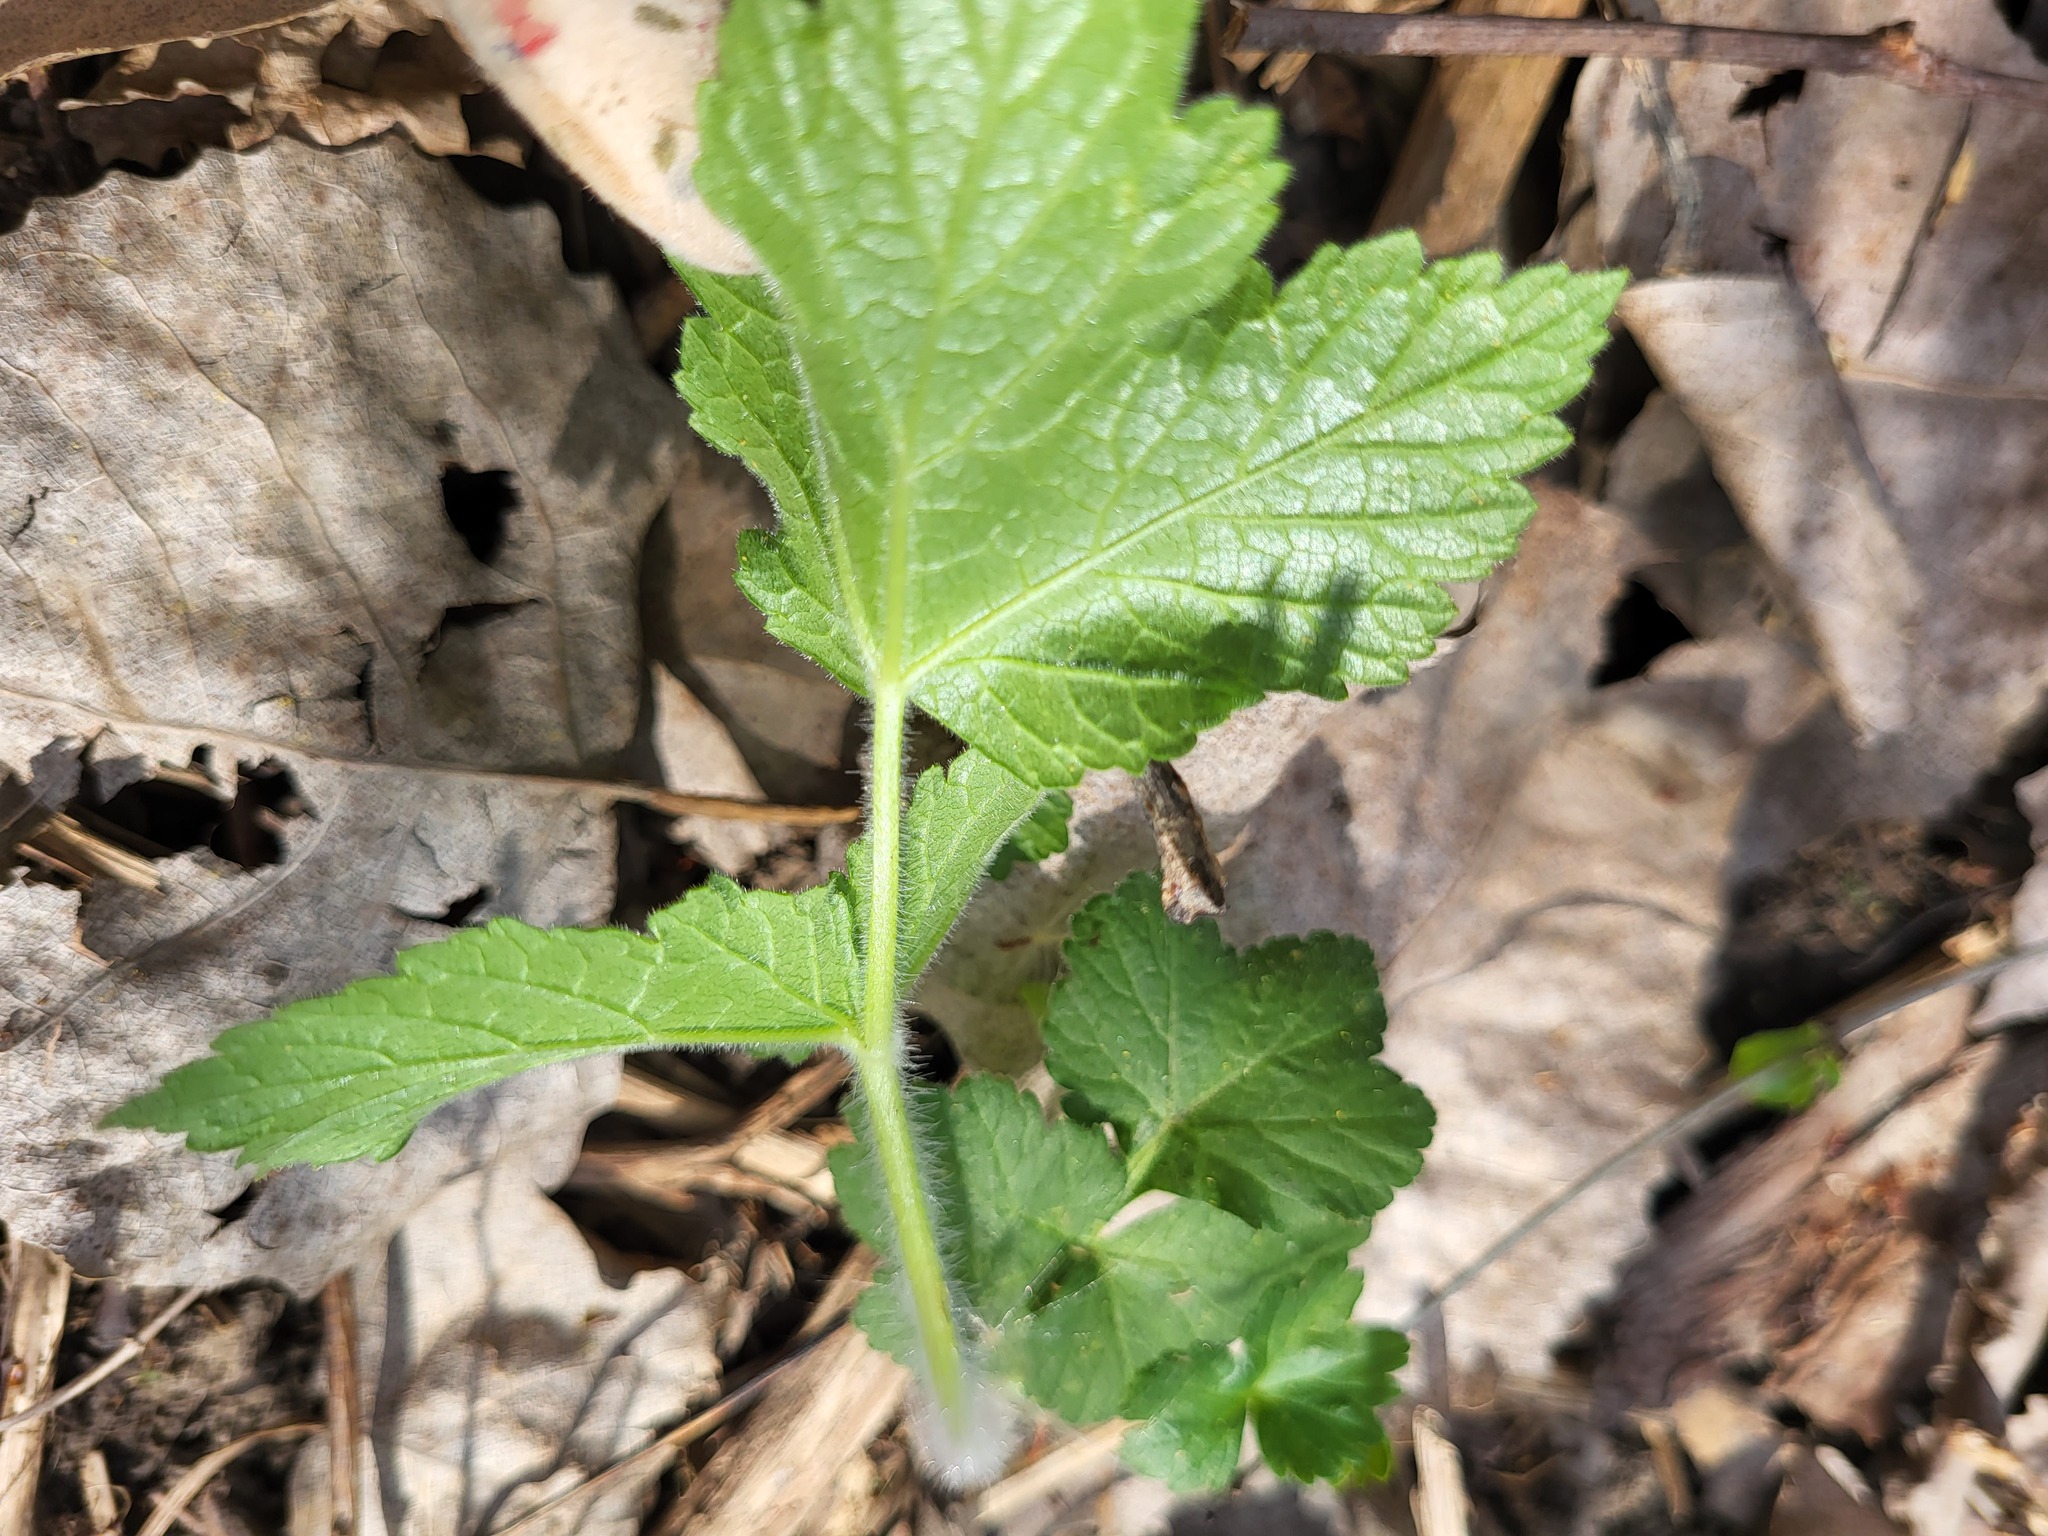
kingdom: Plantae
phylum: Tracheophyta
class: Magnoliopsida
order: Rosales
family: Rosaceae
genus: Geum
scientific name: Geum canadense
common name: White avens
